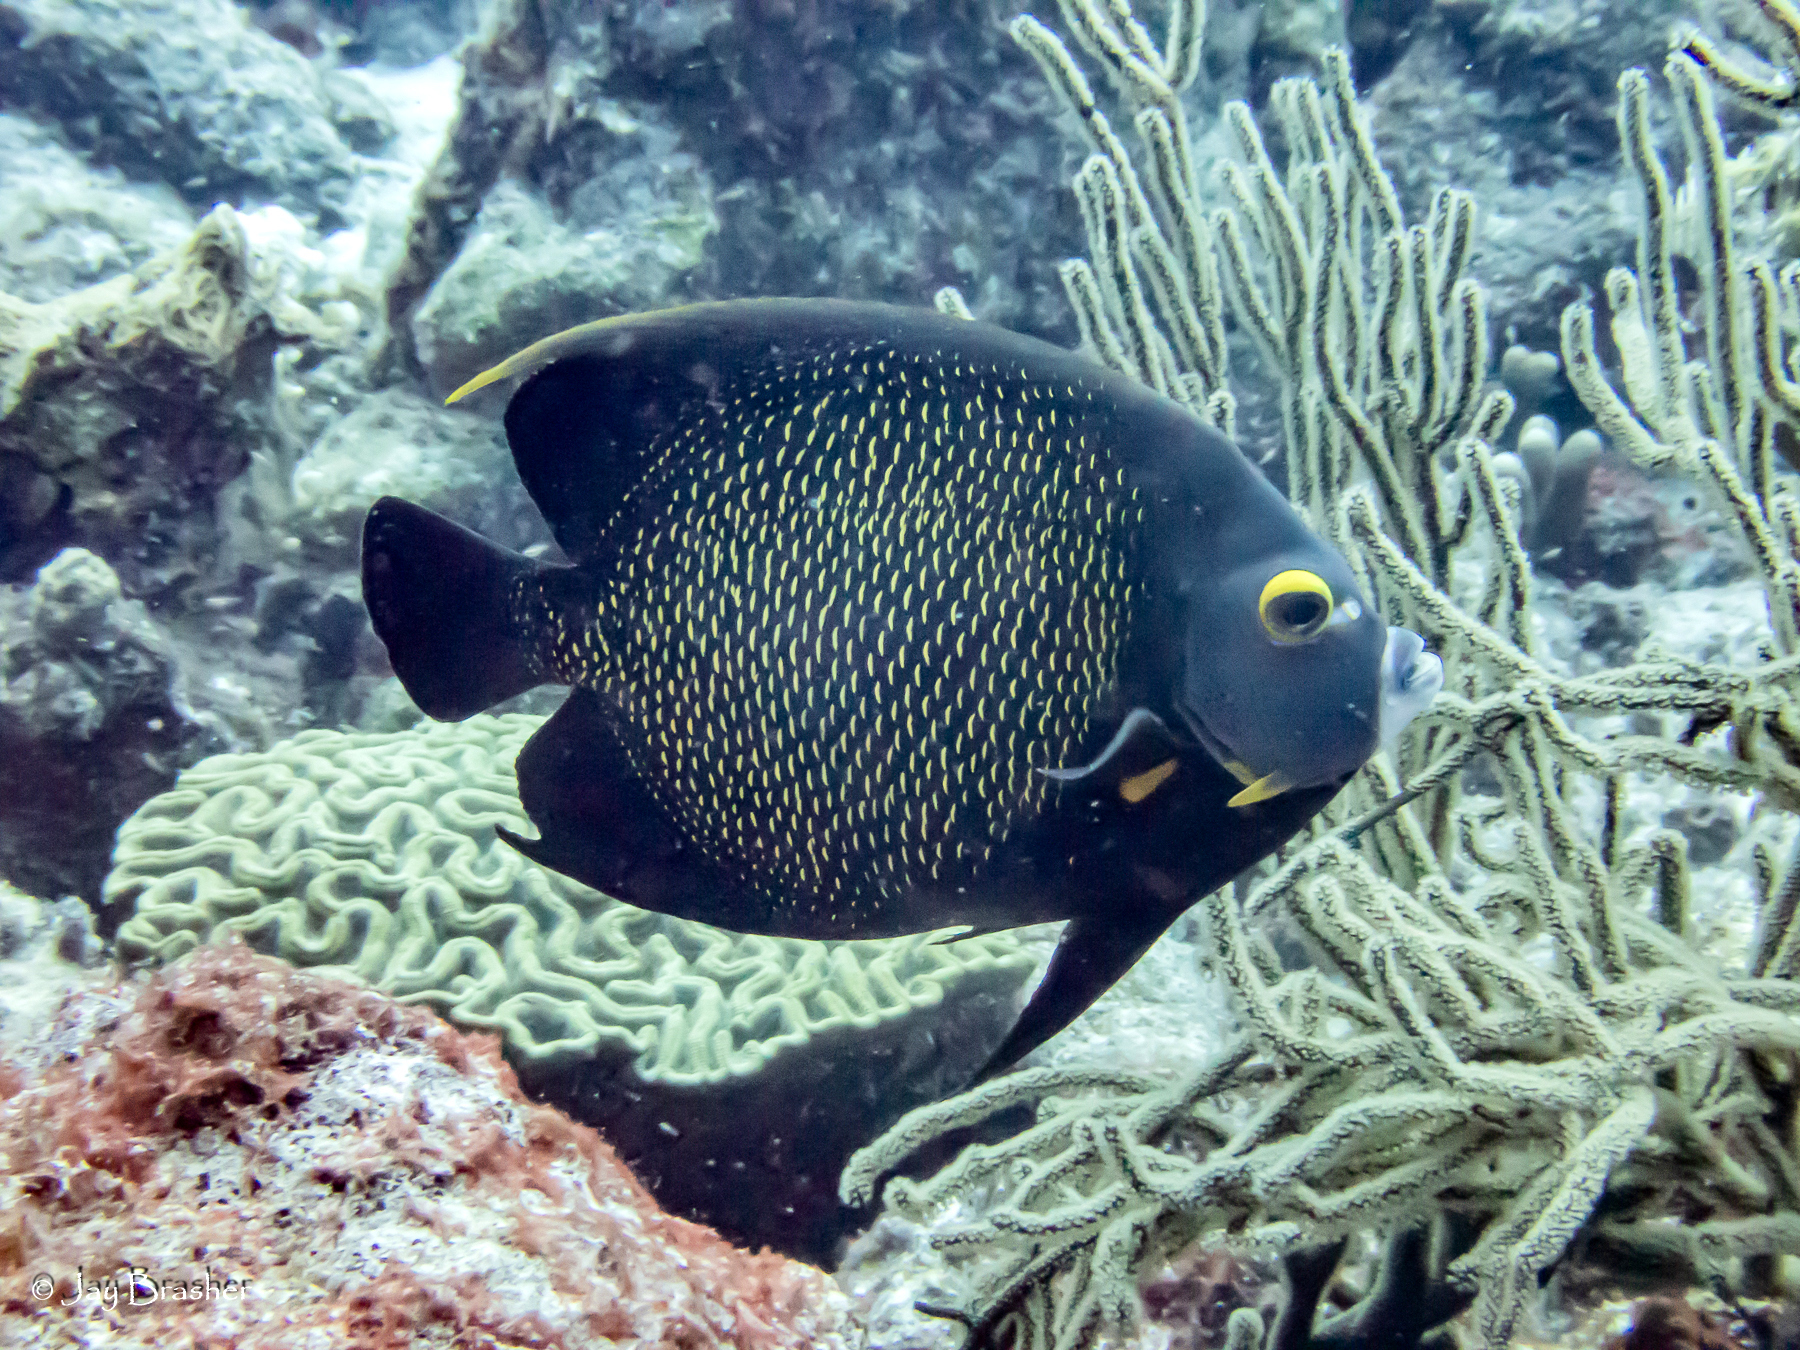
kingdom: Animalia
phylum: Chordata
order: Perciformes
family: Pomacanthidae
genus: Pomacanthus
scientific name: Pomacanthus paru
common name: French angelfish
